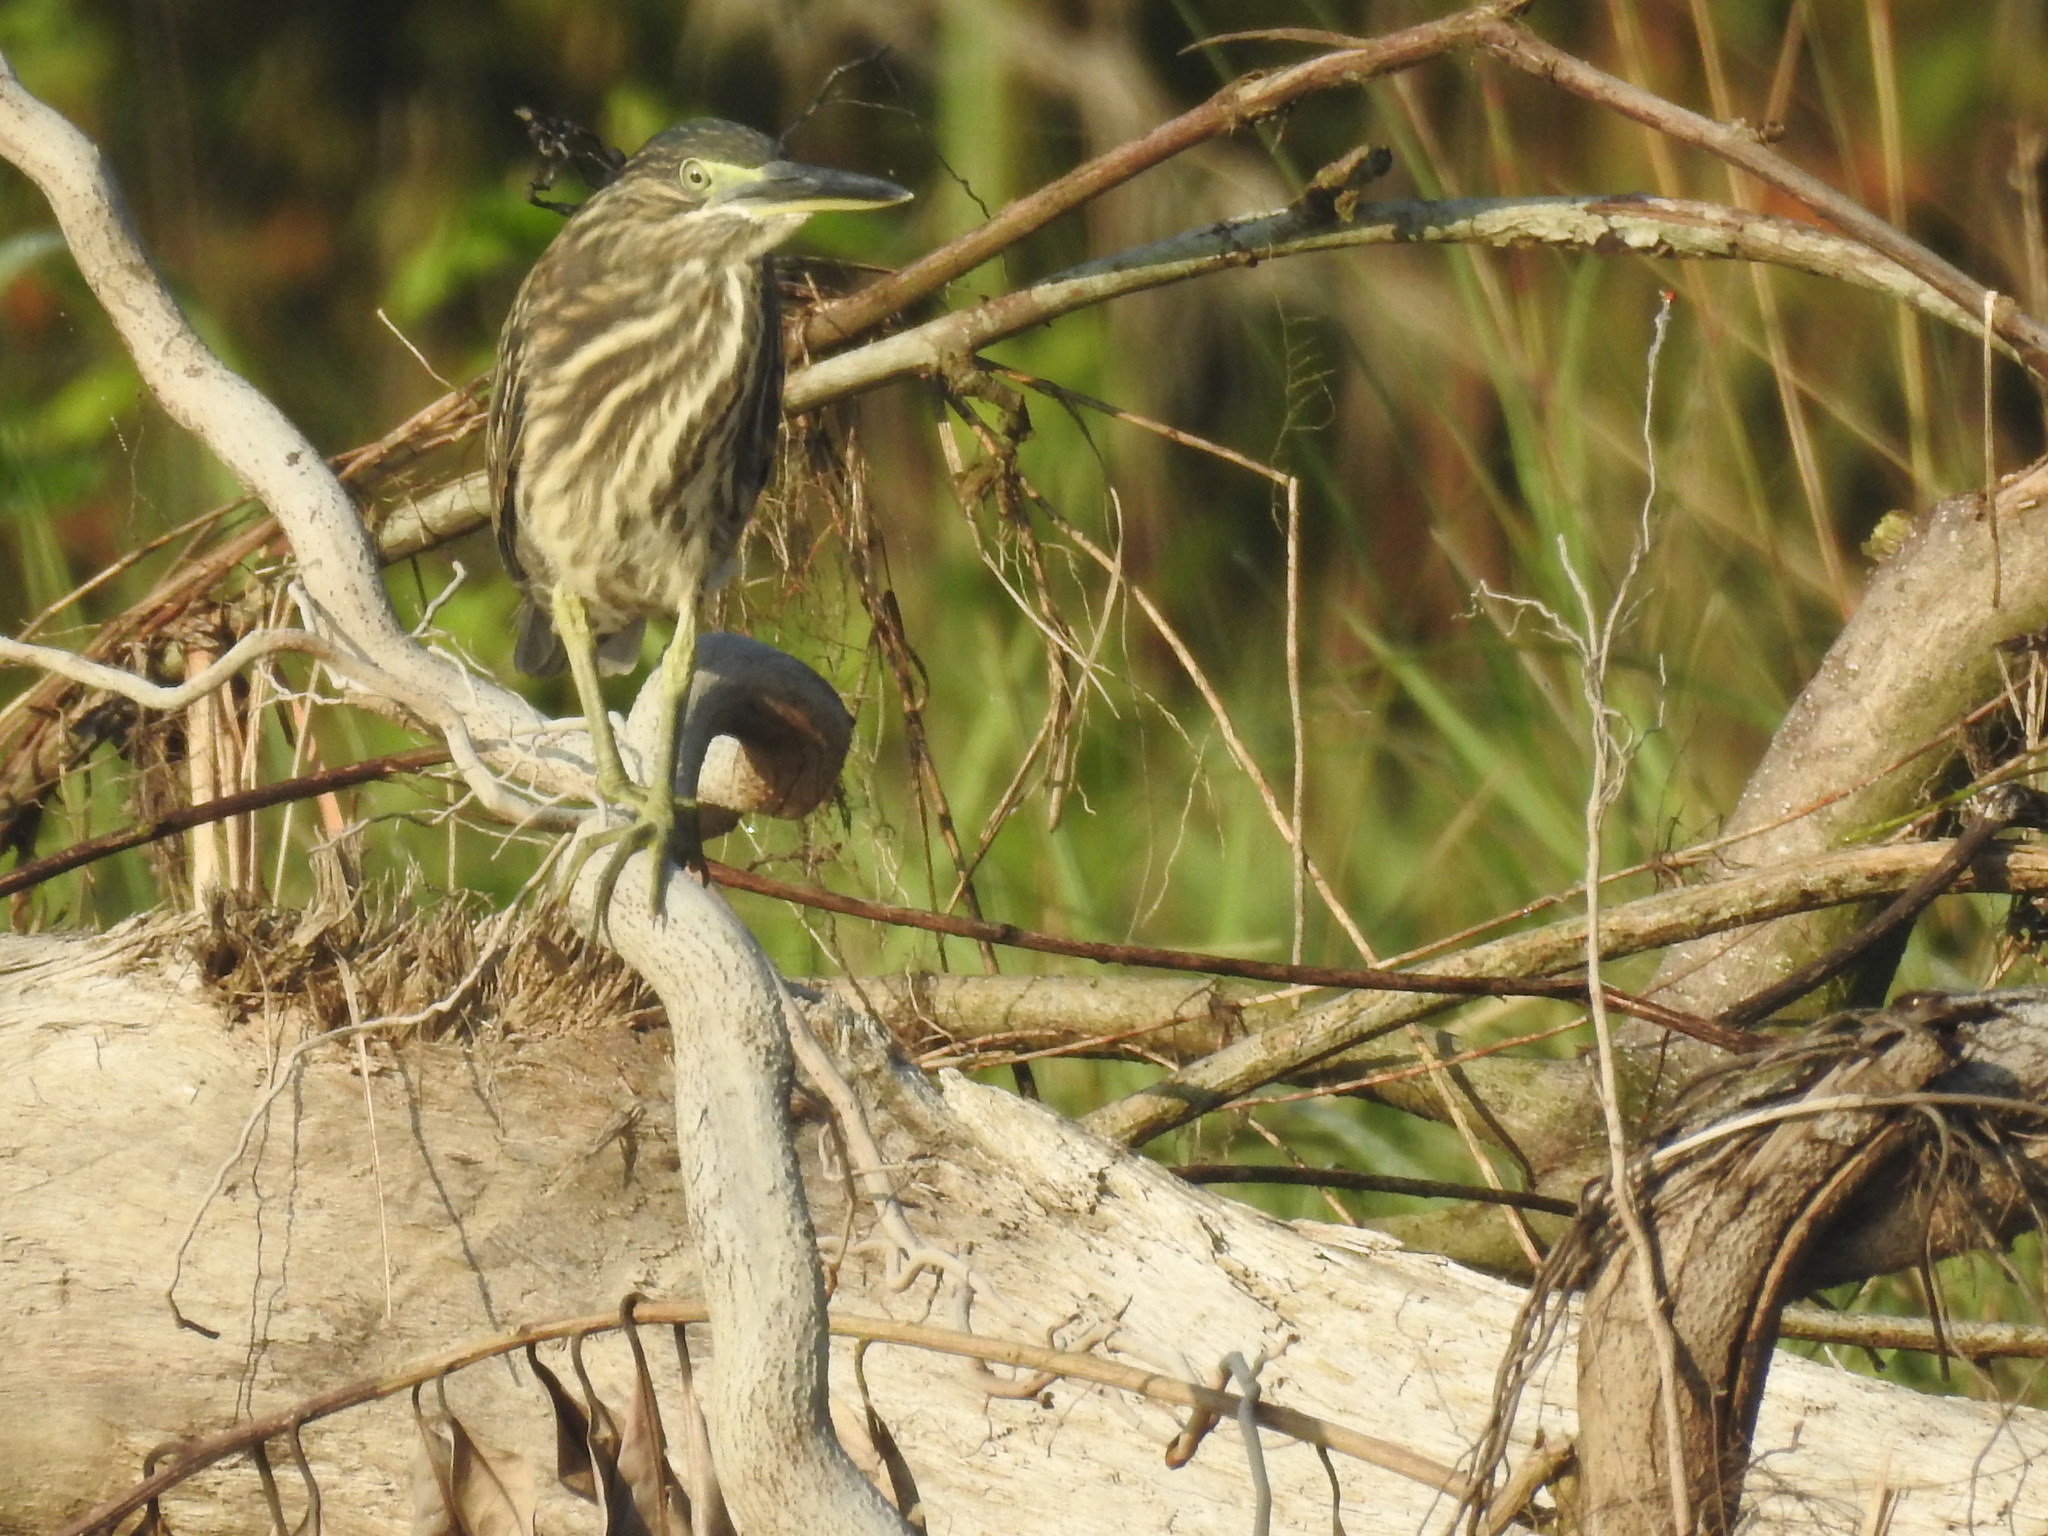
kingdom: Animalia
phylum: Chordata
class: Aves
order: Pelecaniformes
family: Ardeidae
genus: Butorides
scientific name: Butorides striata
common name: Striated heron
